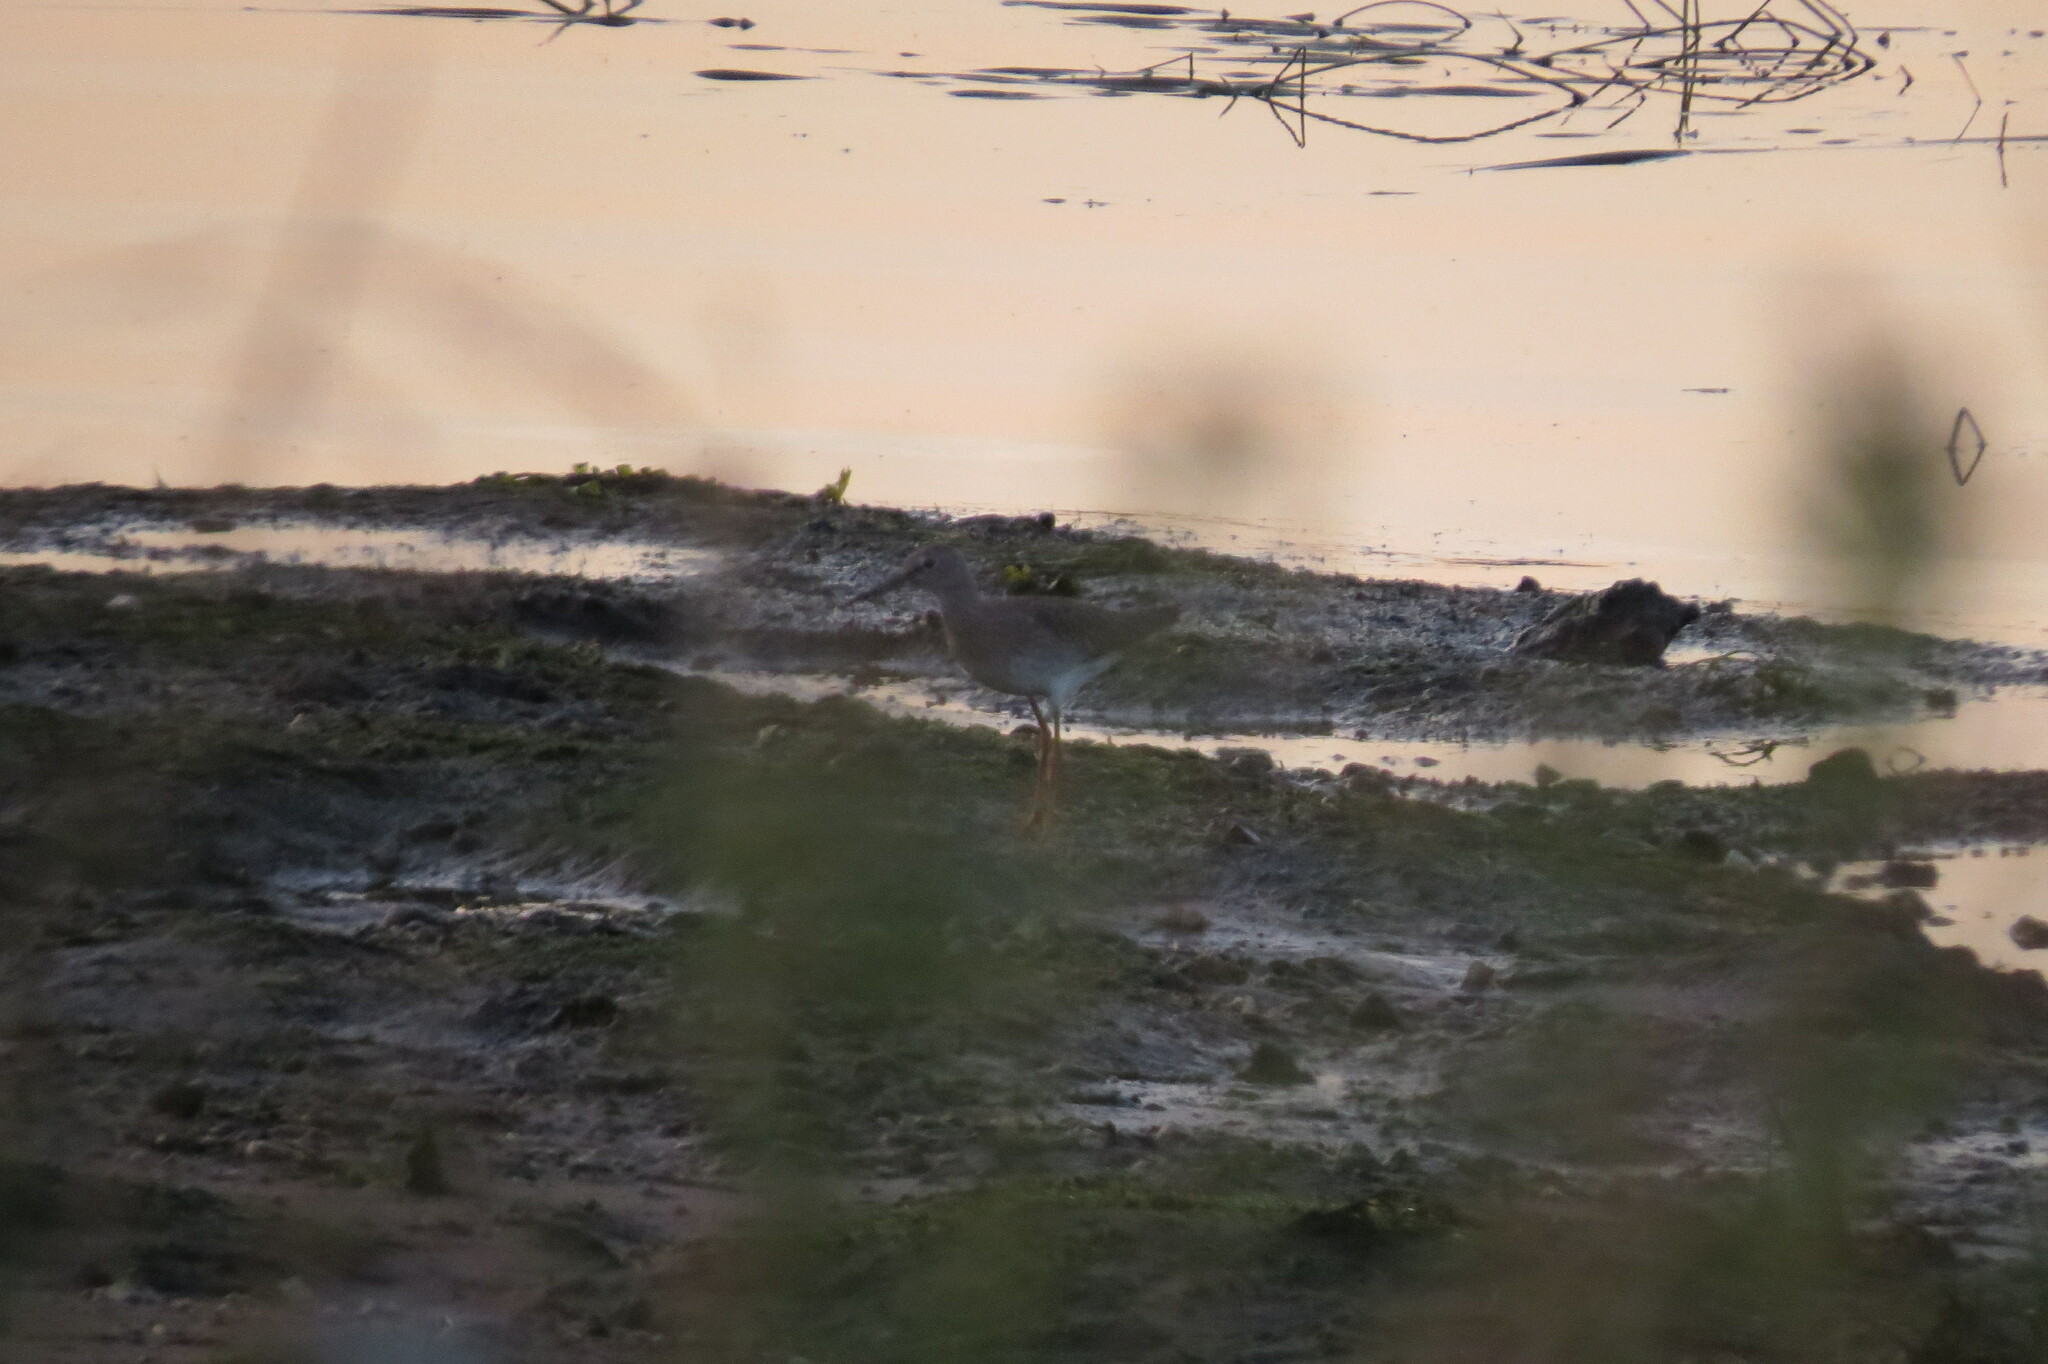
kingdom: Animalia
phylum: Chordata
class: Aves
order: Charadriiformes
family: Scolopacidae
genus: Tringa
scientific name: Tringa totanus
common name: Common redshank
